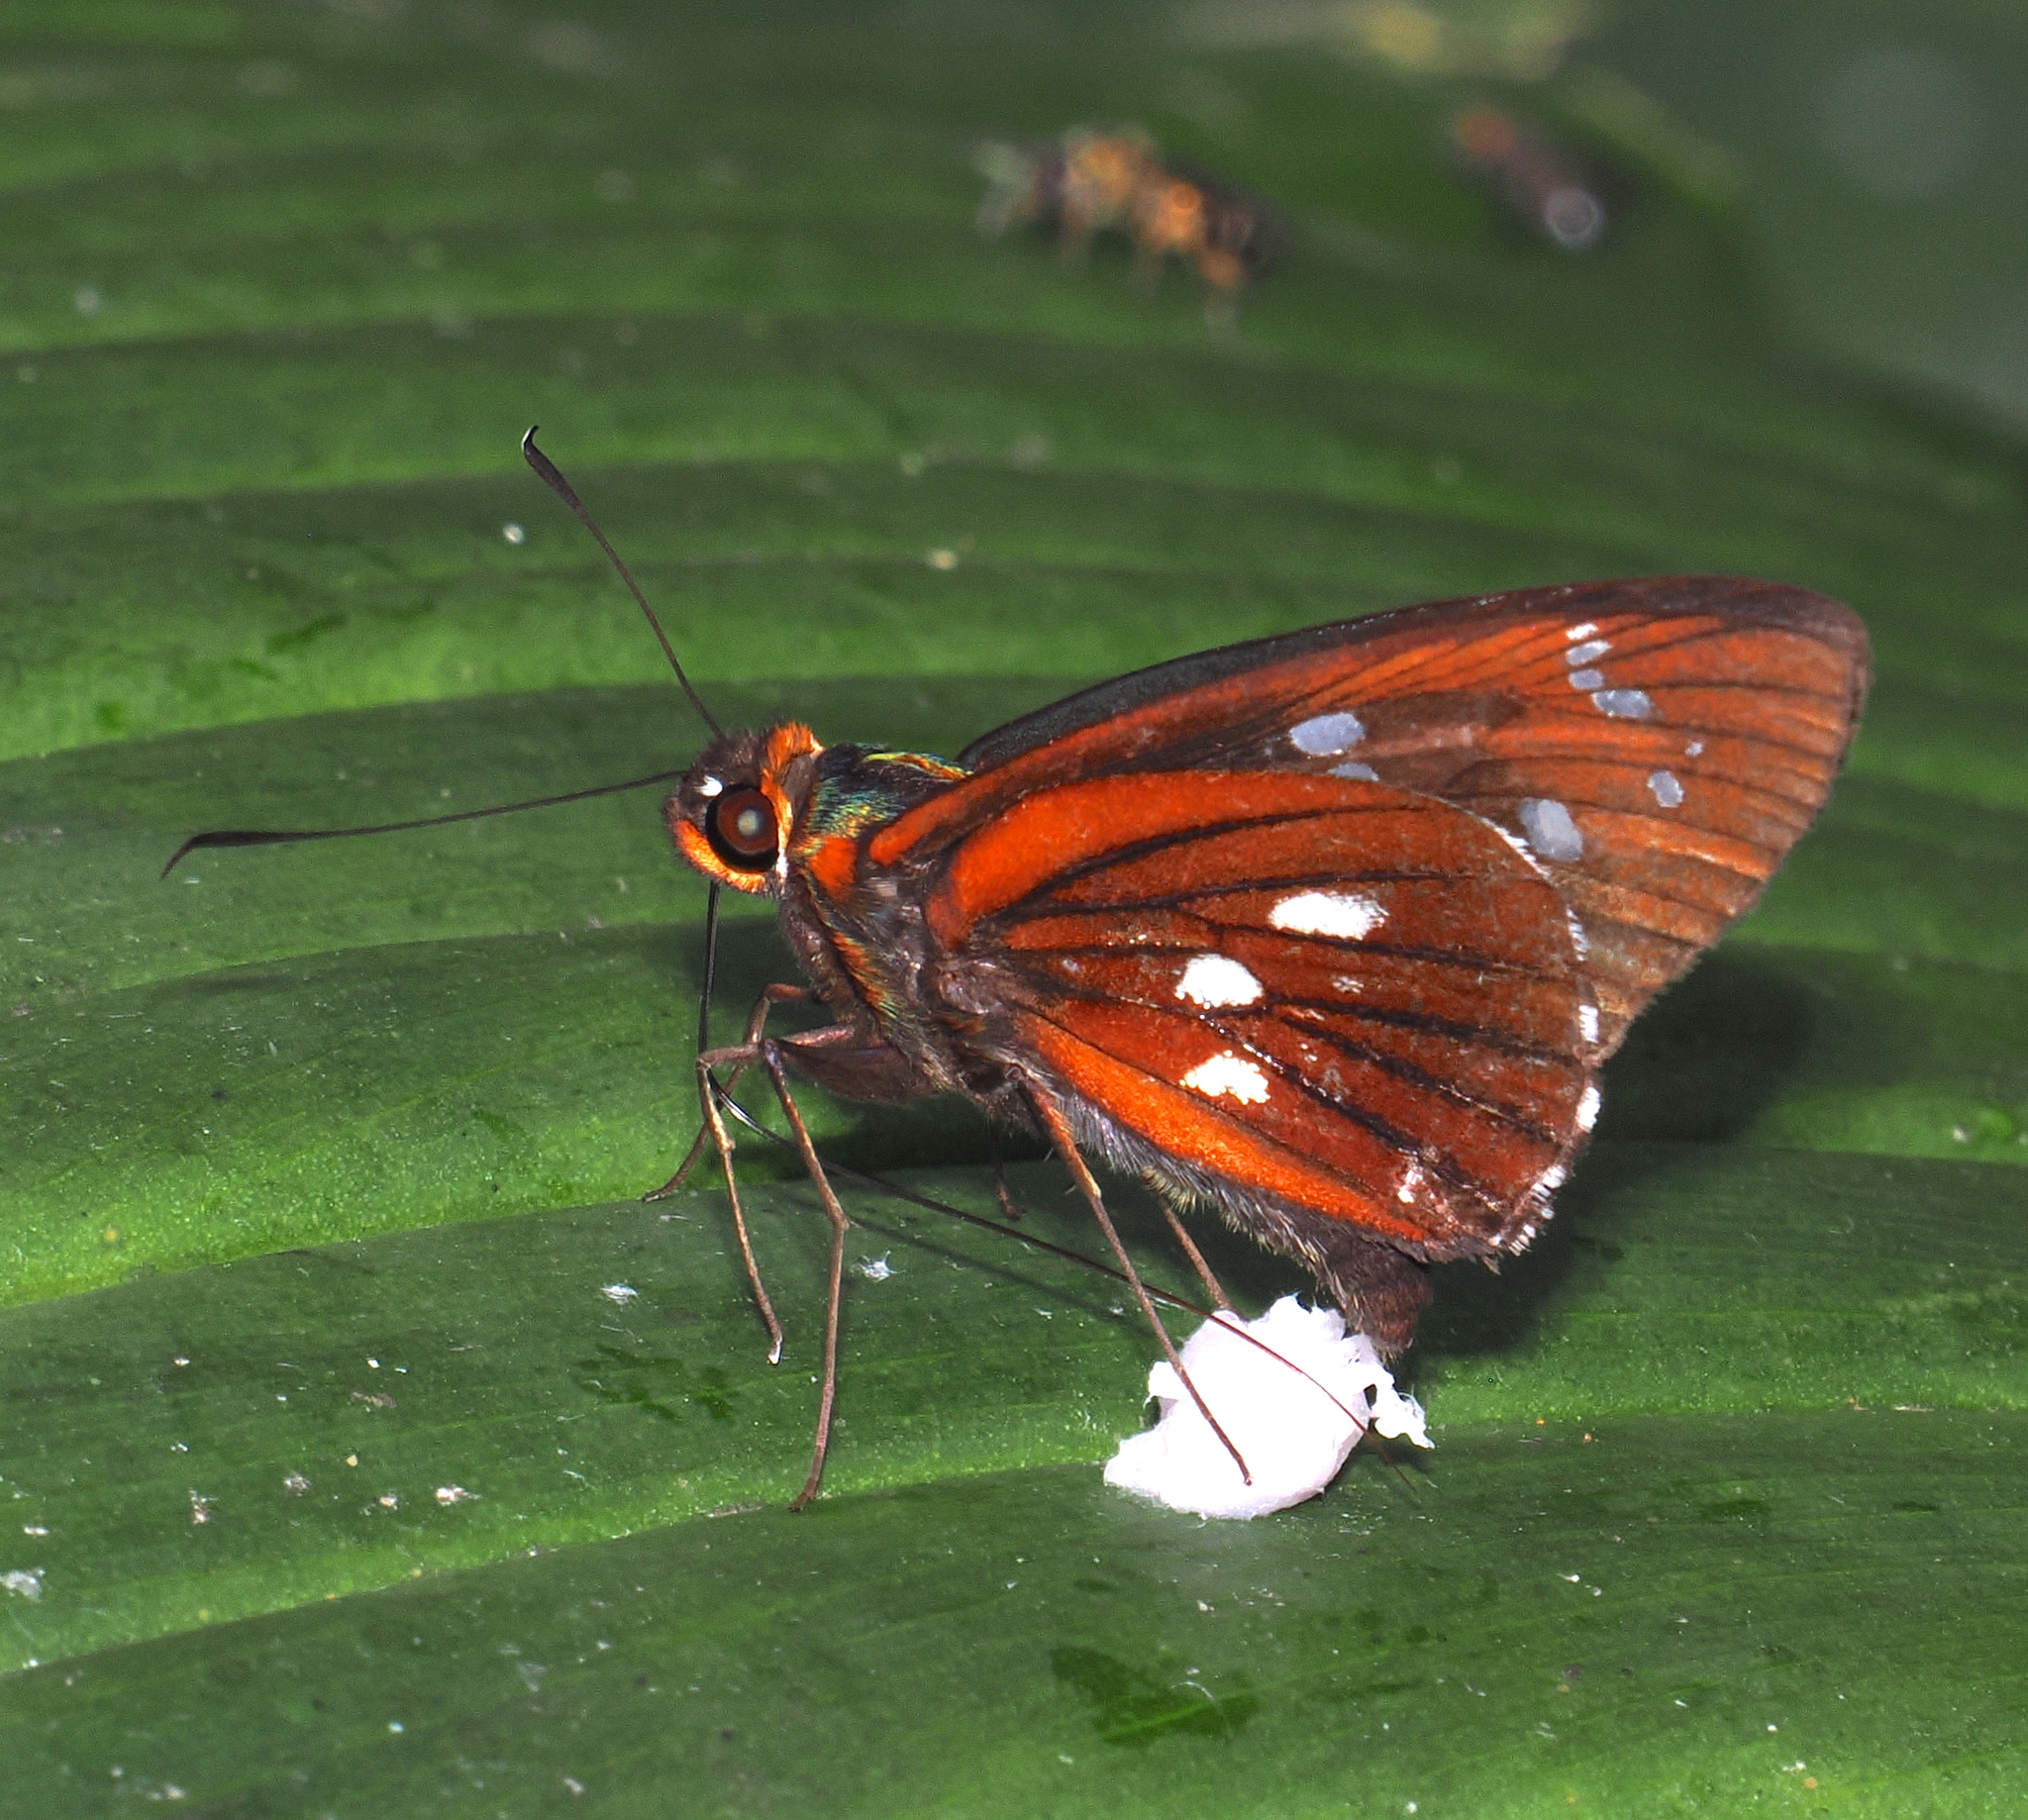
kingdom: Animalia
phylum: Arthropoda
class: Insecta
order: Lepidoptera
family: Hesperiidae
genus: Carystina
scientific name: Carystina
